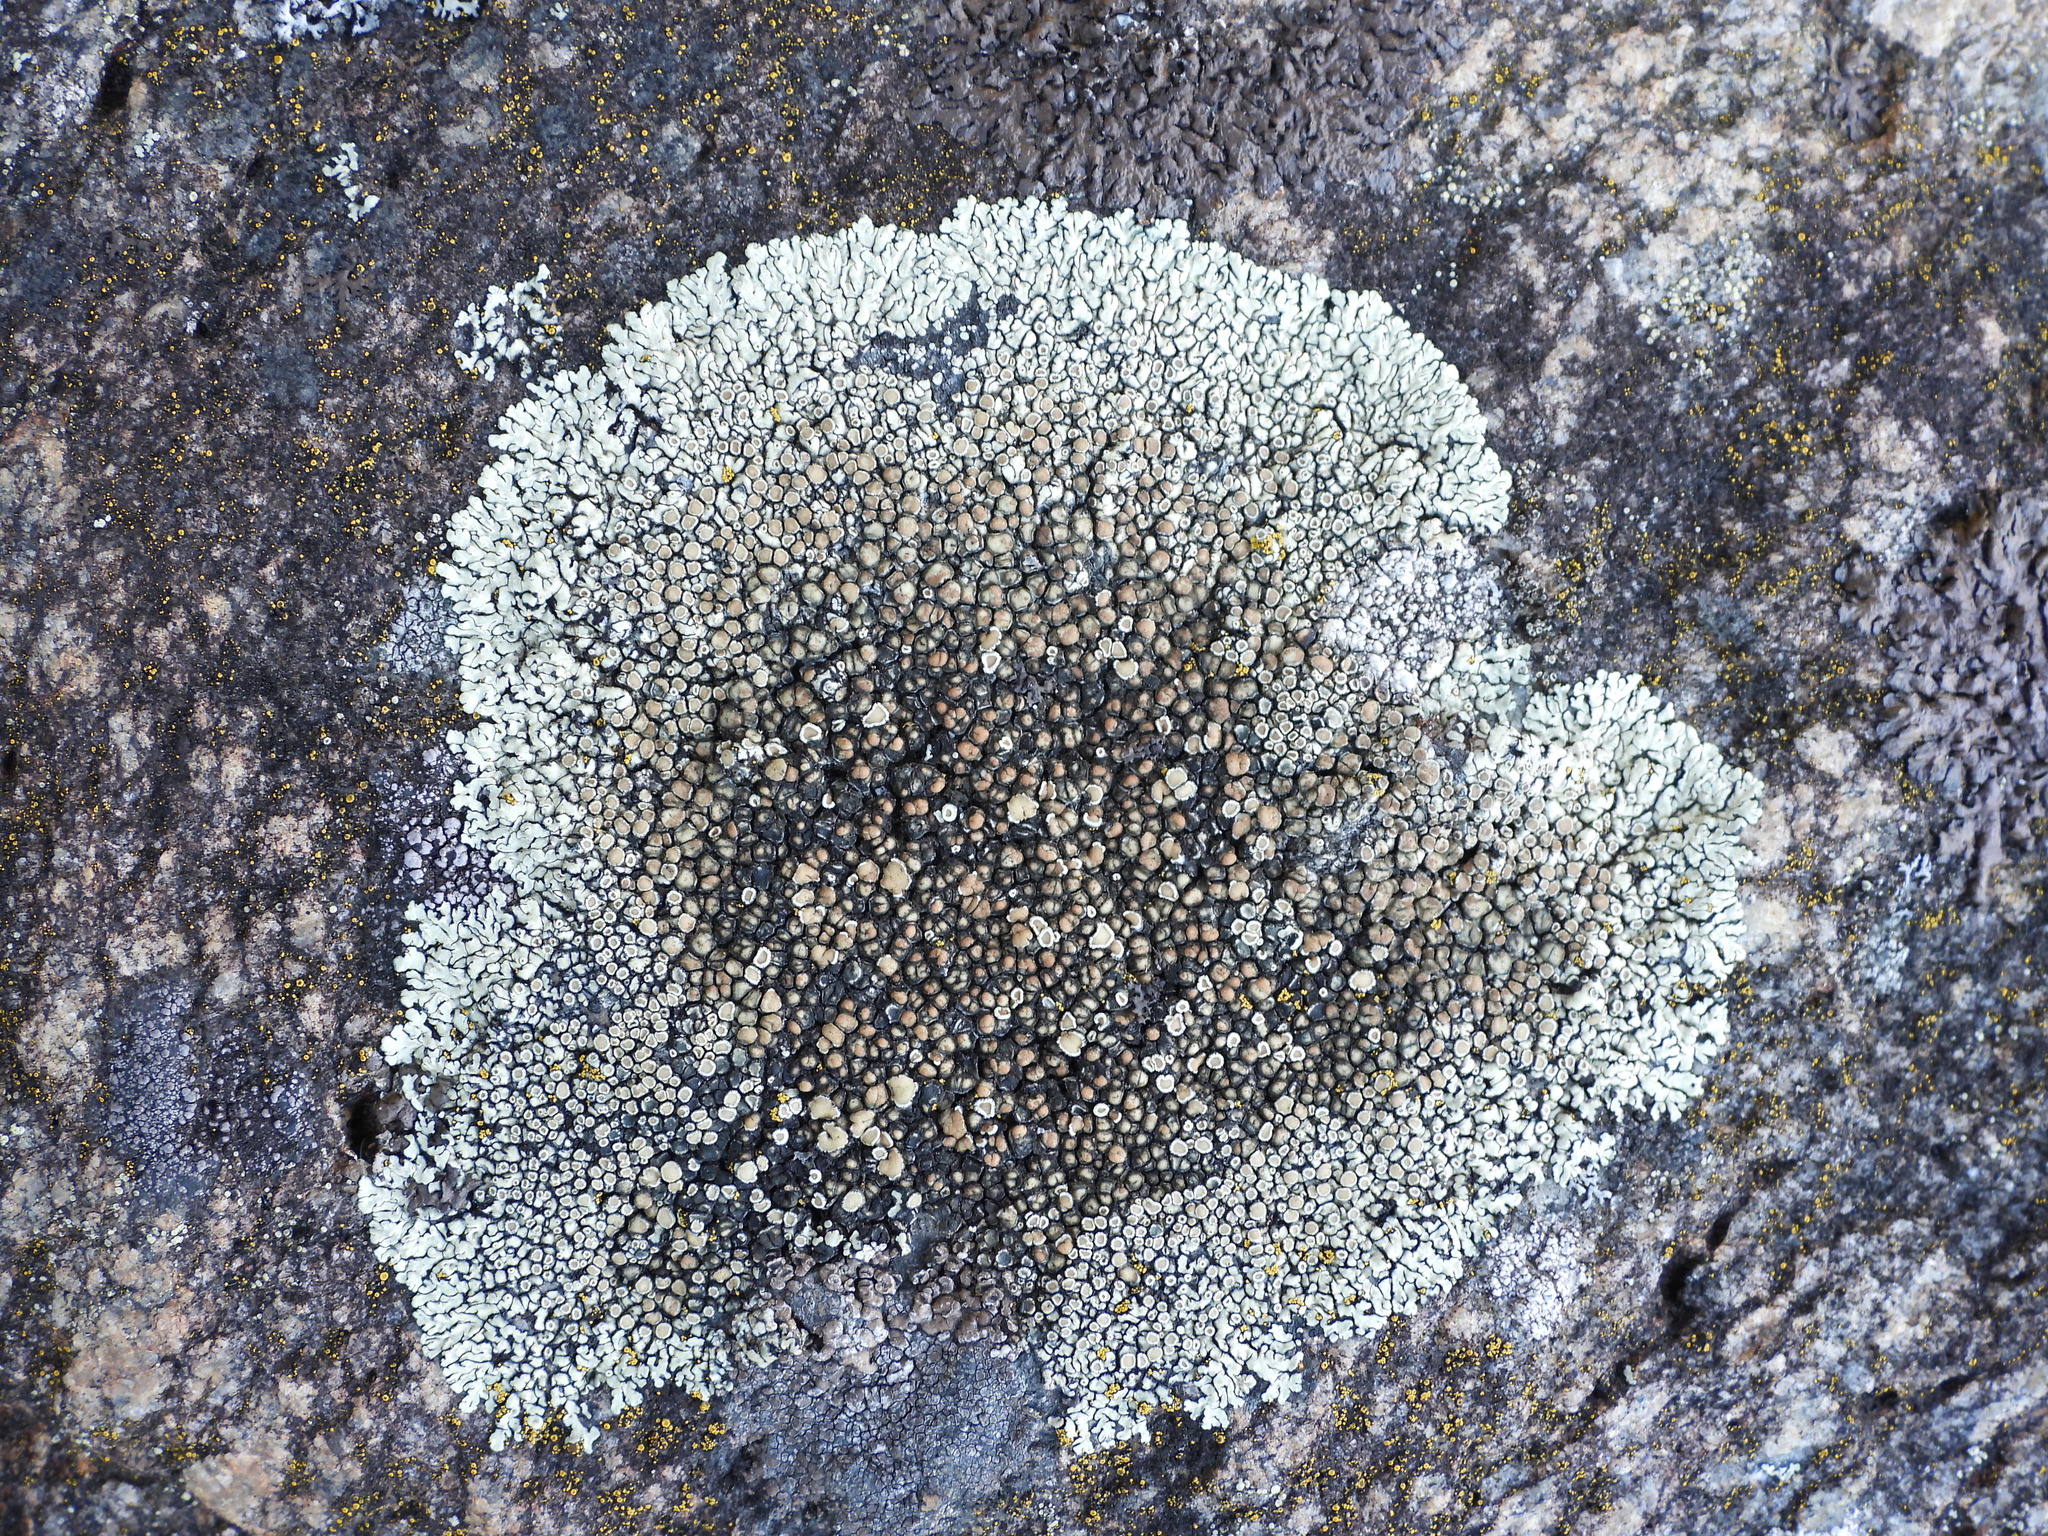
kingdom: Fungi
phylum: Ascomycota
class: Lecanoromycetes
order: Lecanorales
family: Lecanoraceae
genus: Protoparmeliopsis
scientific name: Protoparmeliopsis muralis
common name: Stonewall rim lichen
